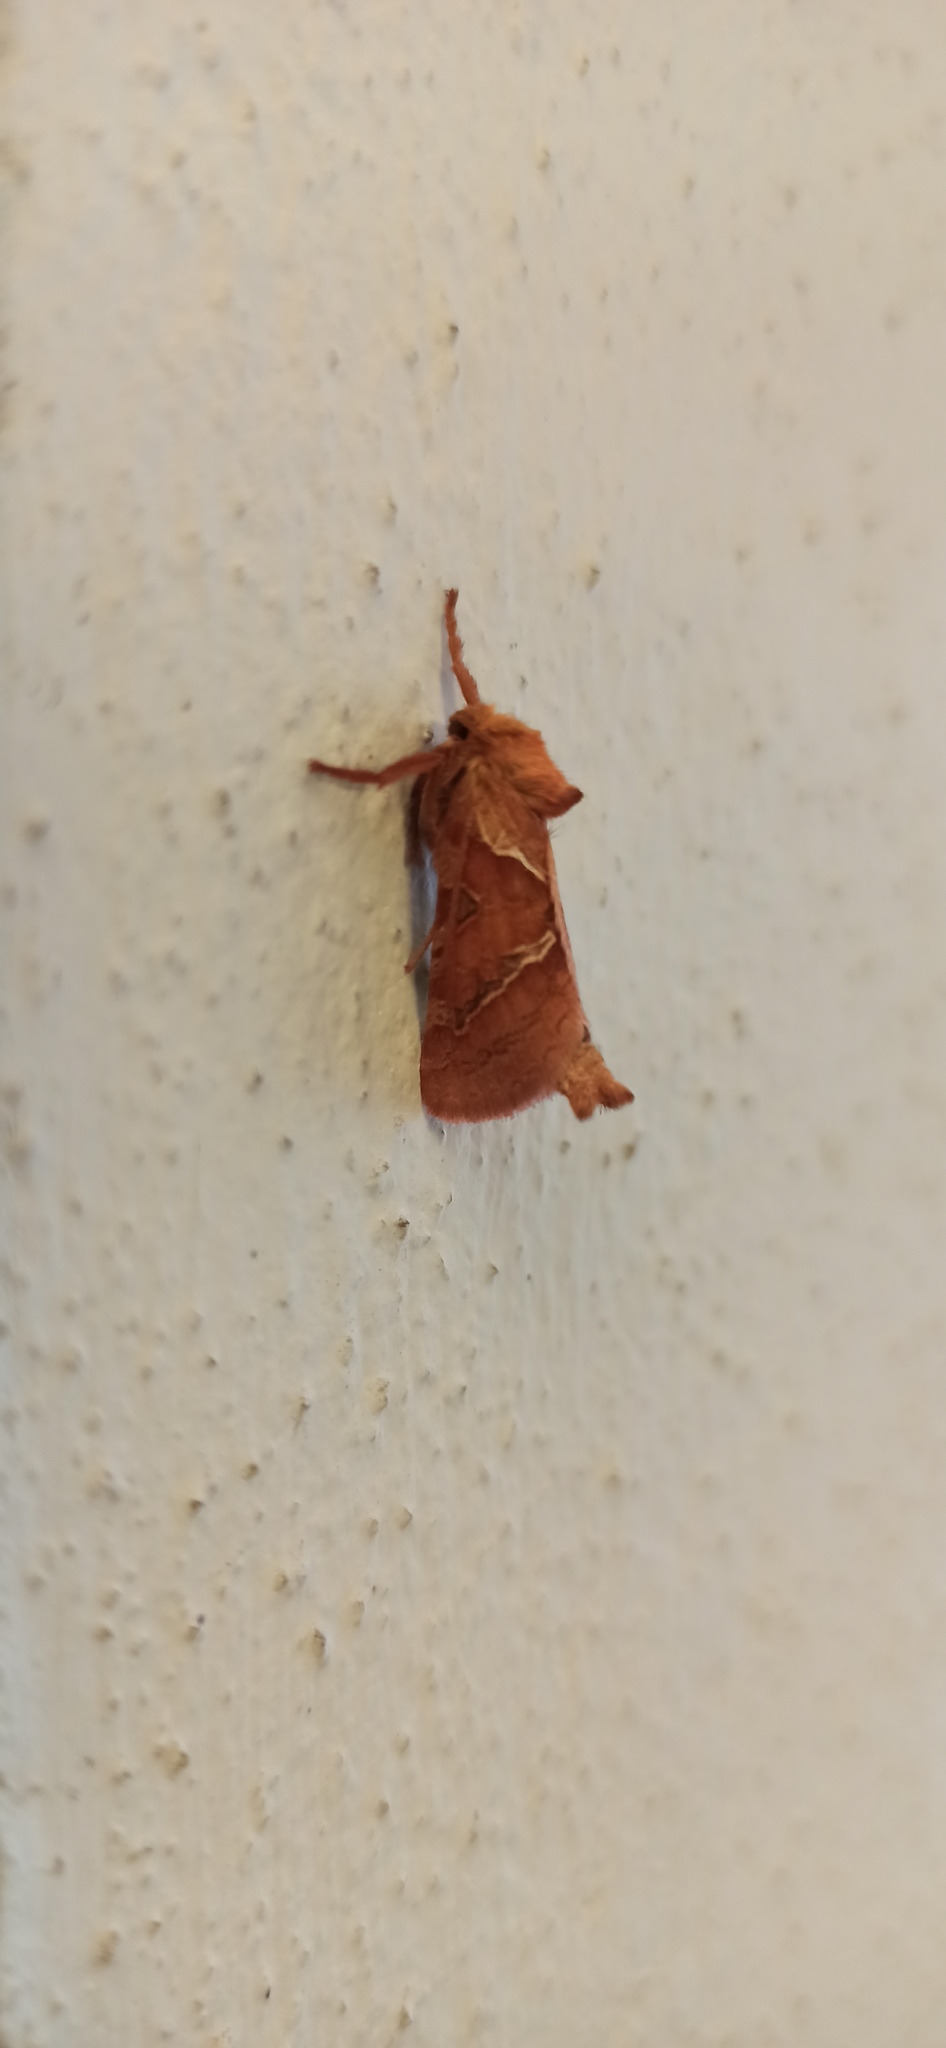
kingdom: Animalia
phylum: Arthropoda
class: Insecta
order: Lepidoptera
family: Hepialidae
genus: Triodia
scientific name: Triodia sylvina
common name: Orange swift
